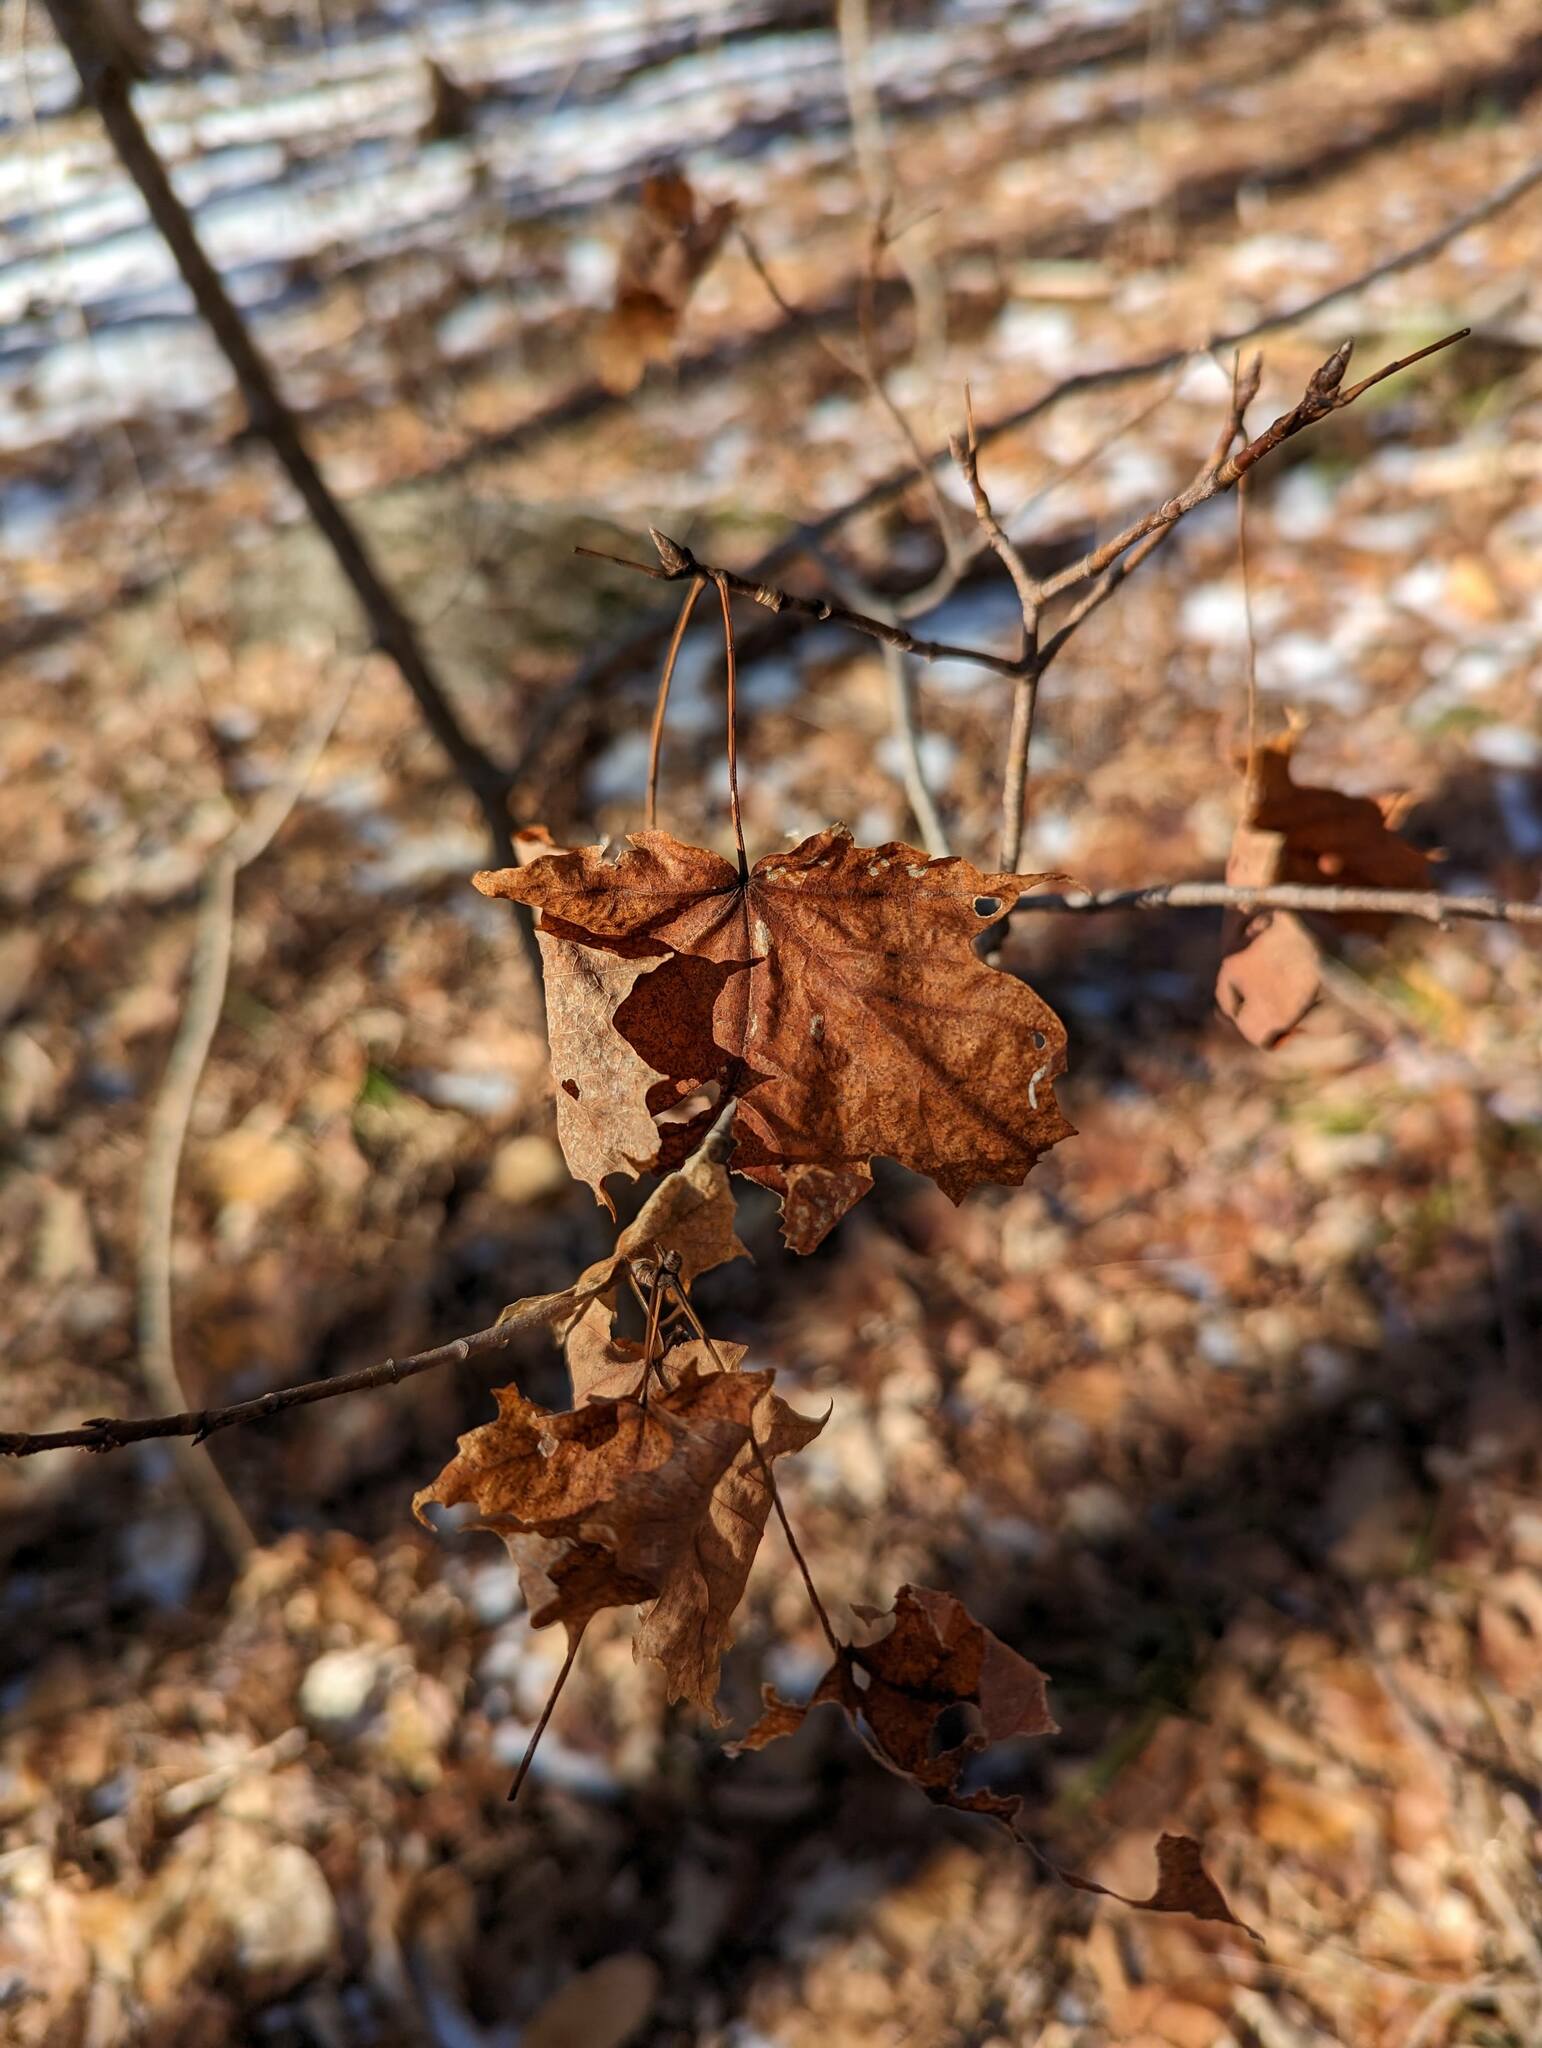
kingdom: Plantae
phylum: Tracheophyta
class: Magnoliopsida
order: Sapindales
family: Sapindaceae
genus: Acer
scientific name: Acer saccharum
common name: Sugar maple
